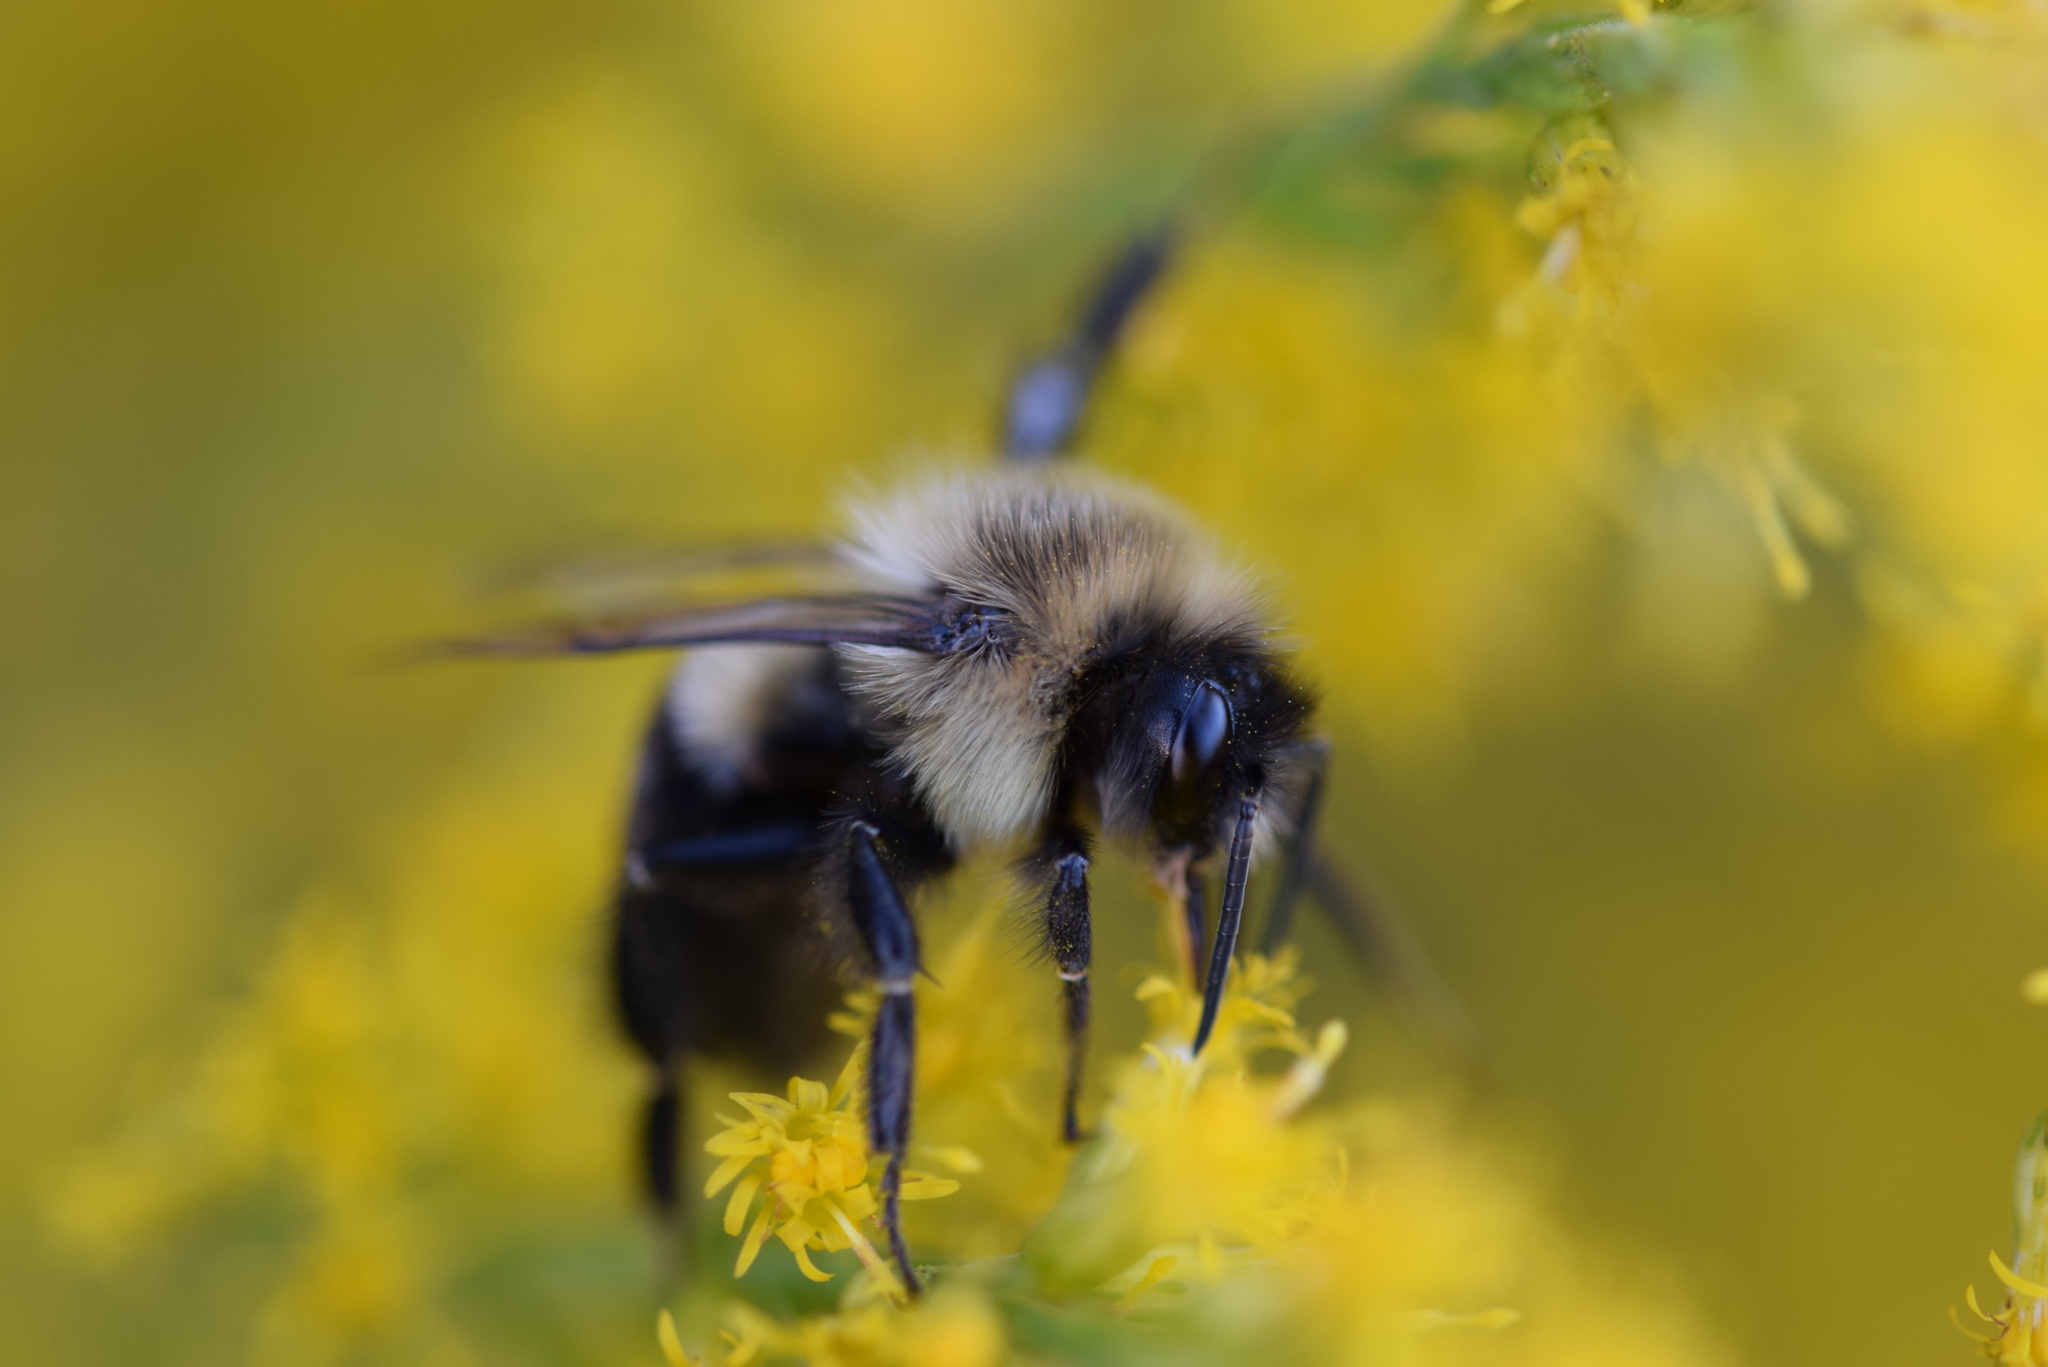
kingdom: Animalia
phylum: Arthropoda
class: Insecta
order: Hymenoptera
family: Apidae
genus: Bombus
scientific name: Bombus impatiens
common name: Common eastern bumble bee
